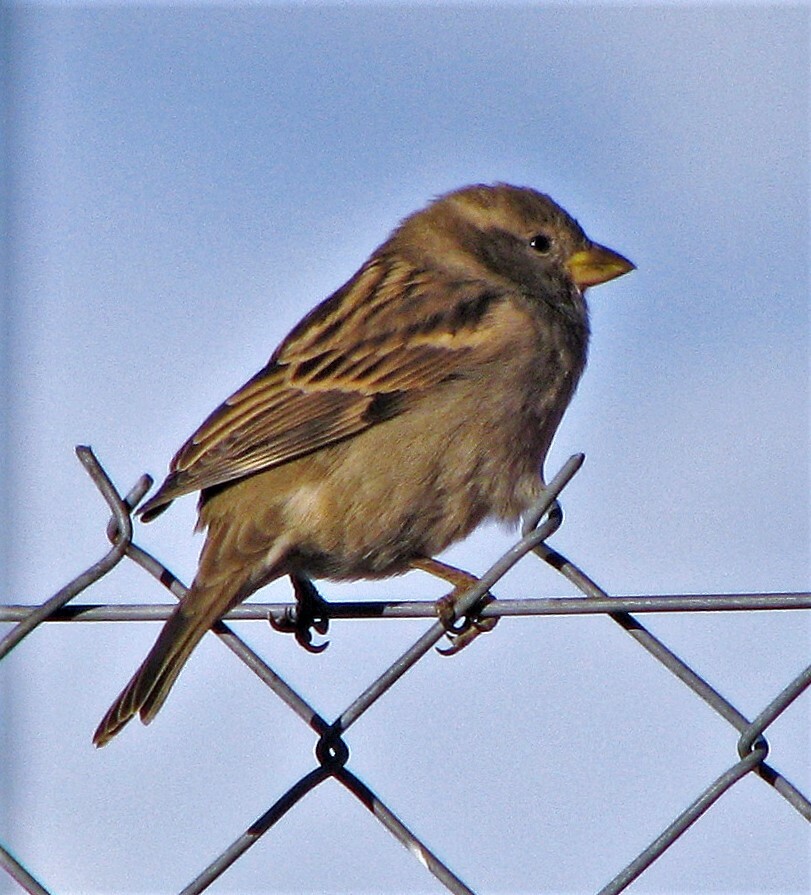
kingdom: Animalia
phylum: Chordata
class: Aves
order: Passeriformes
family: Passeridae
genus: Passer
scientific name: Passer domesticus
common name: House sparrow
